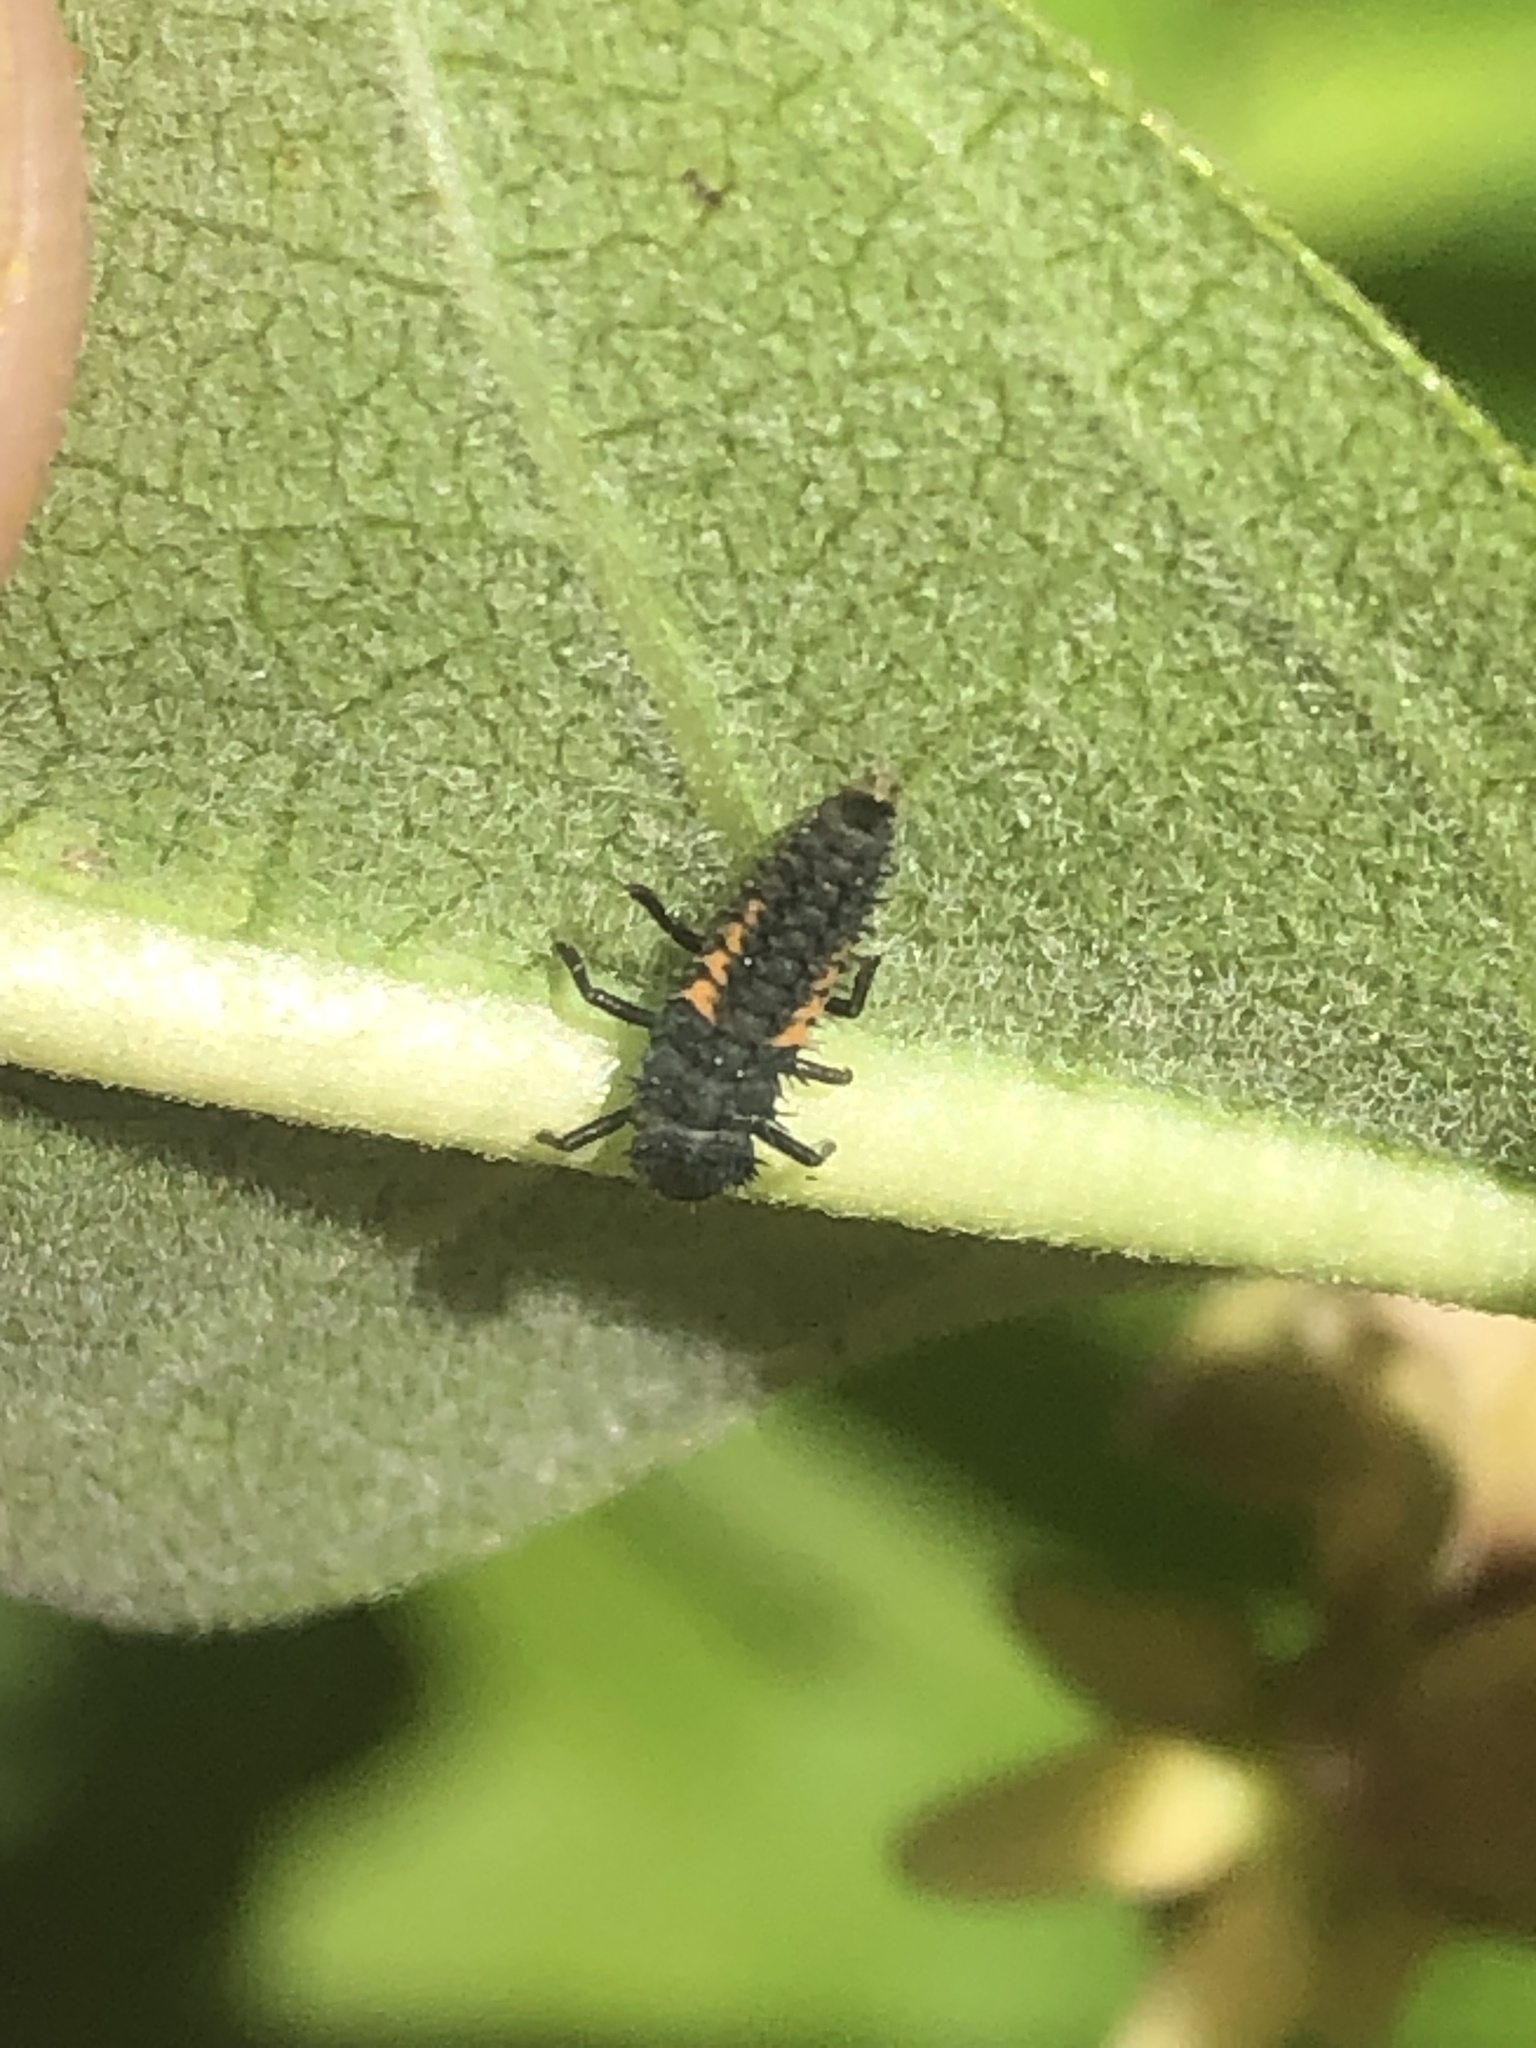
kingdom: Animalia
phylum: Arthropoda
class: Insecta
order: Coleoptera
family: Coccinellidae
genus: Harmonia
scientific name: Harmonia axyridis
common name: Harlequin ladybird
